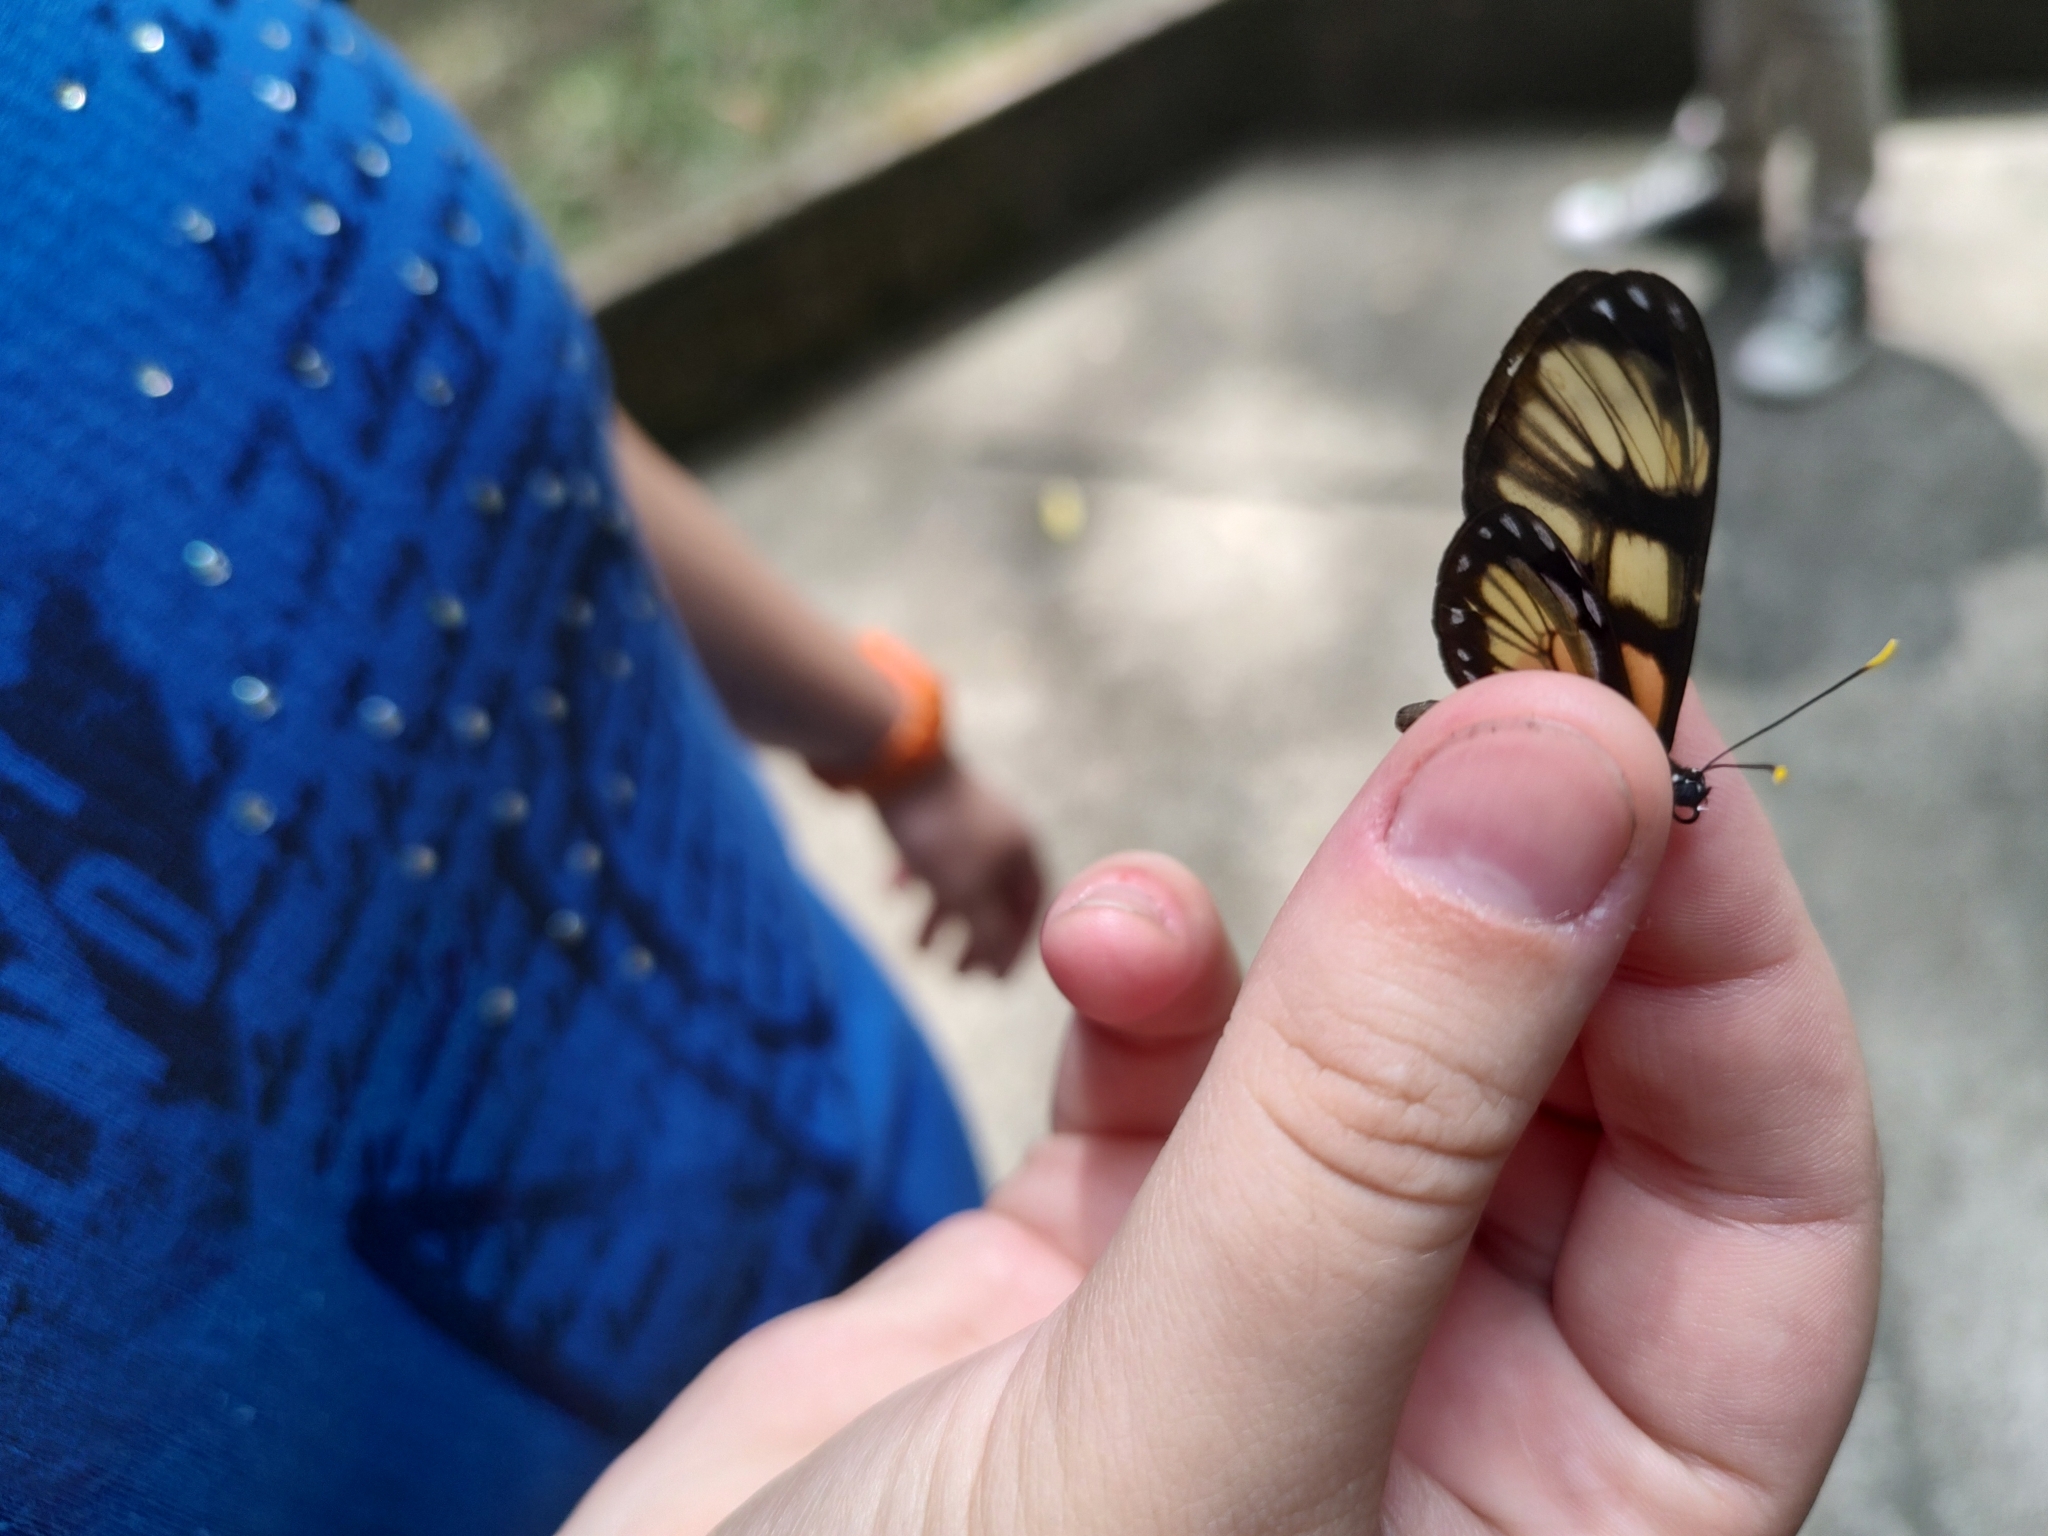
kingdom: Animalia
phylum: Arthropoda
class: Insecta
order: Lepidoptera
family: Nymphalidae
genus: Dircenna
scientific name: Dircenna dero
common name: Dero clearwing
